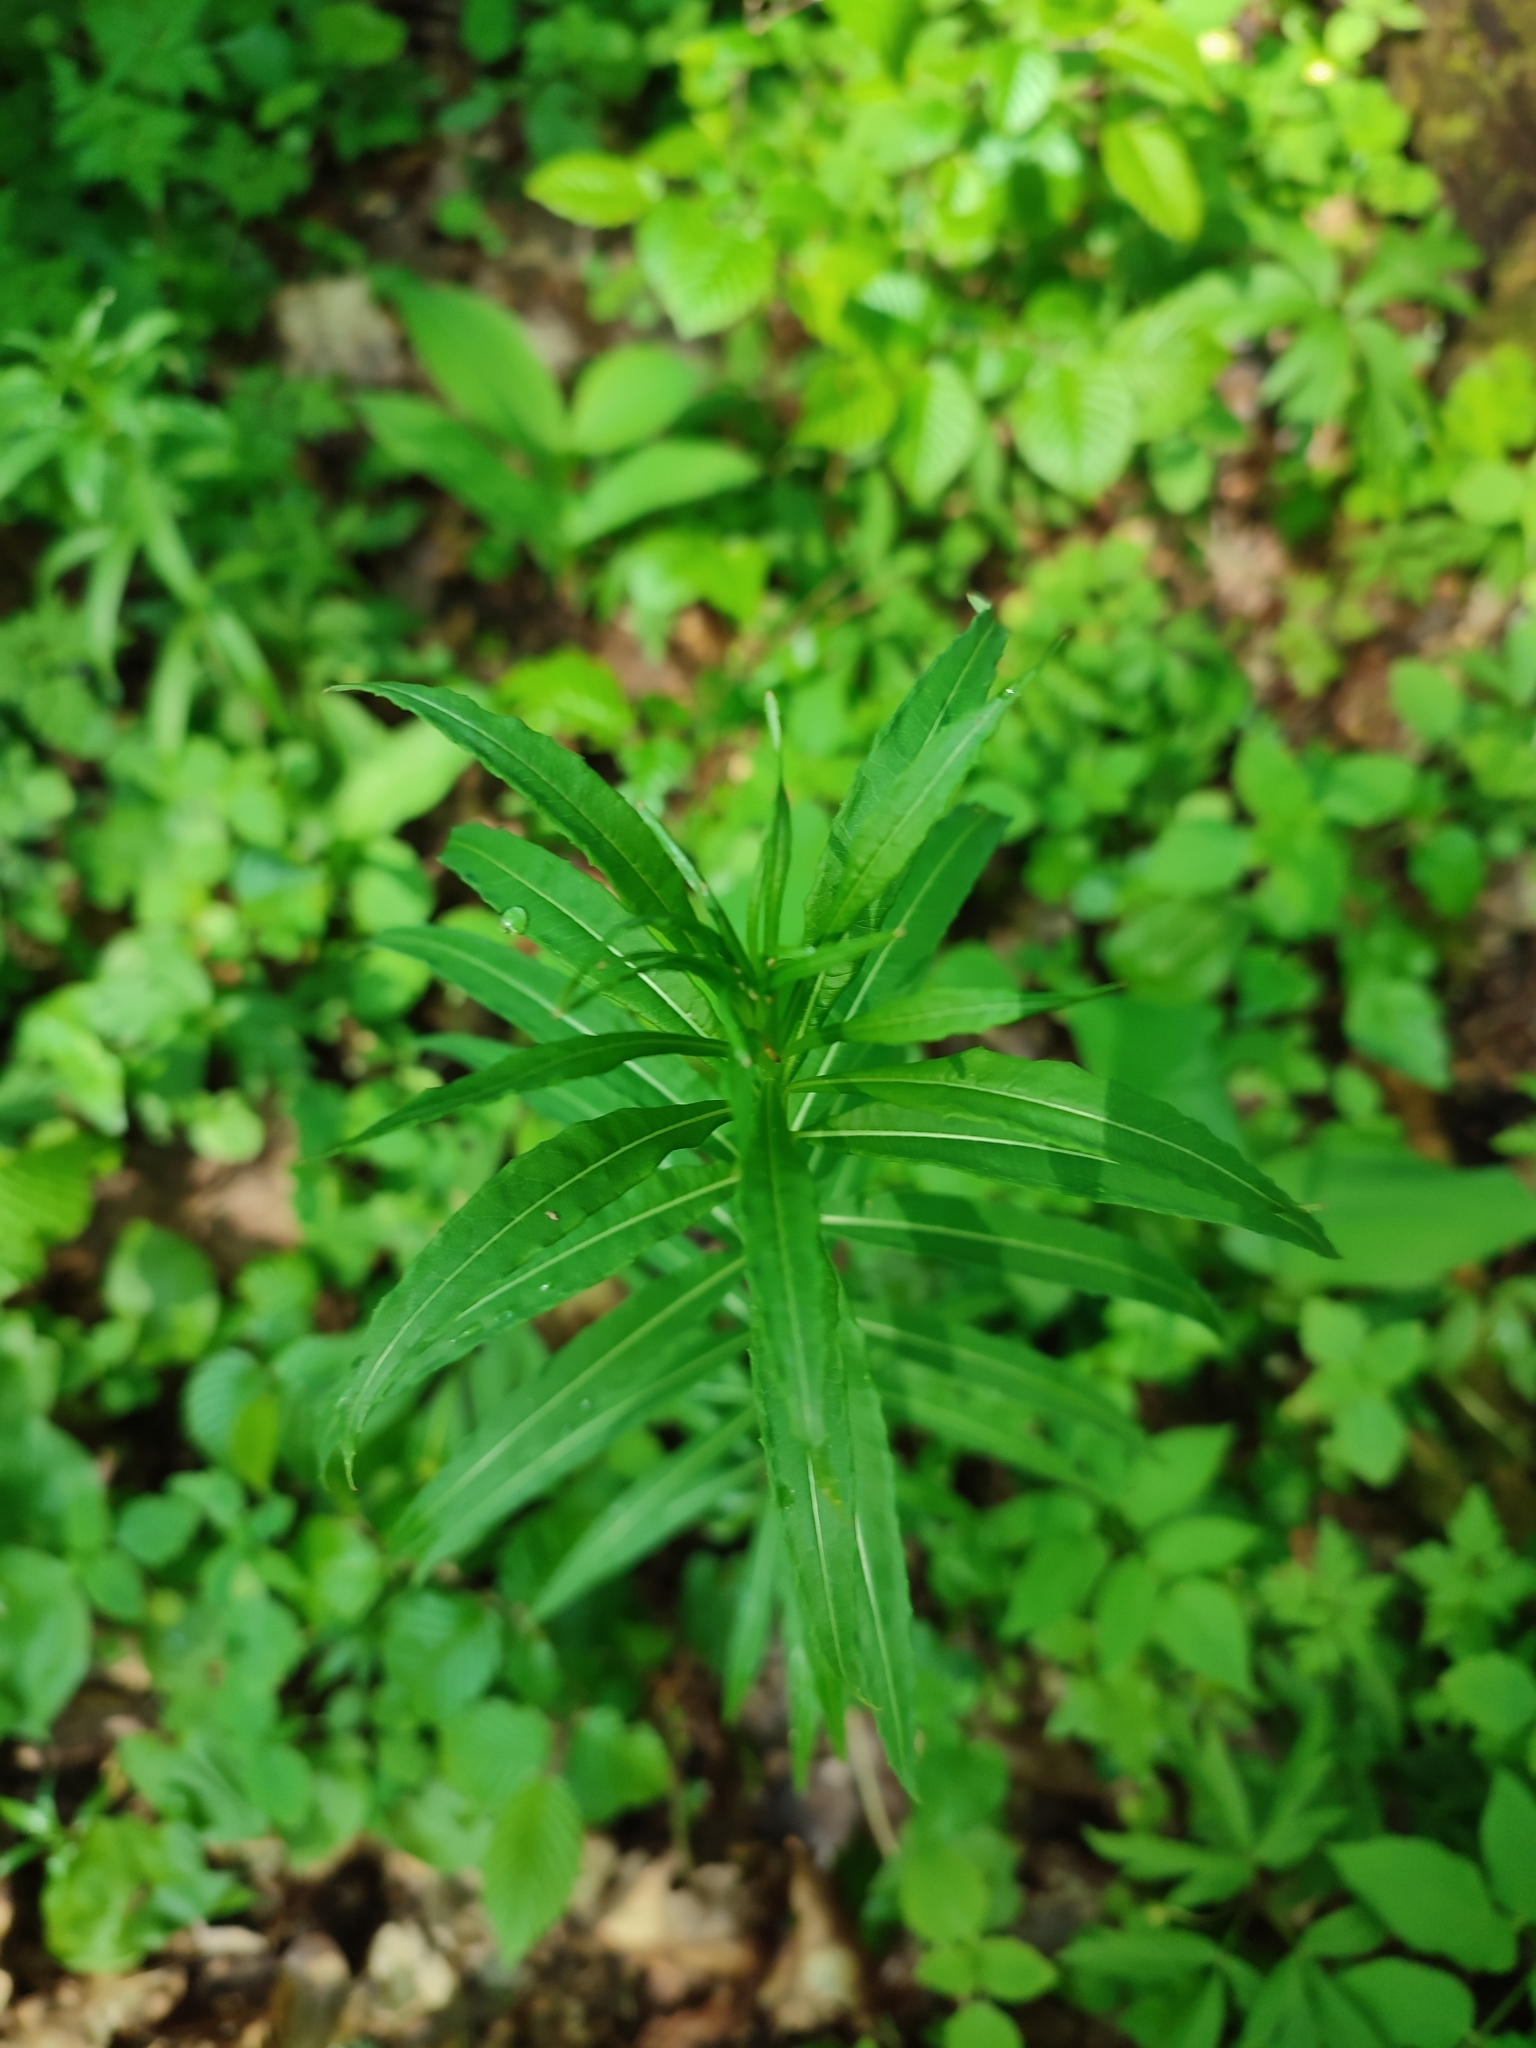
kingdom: Plantae
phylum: Tracheophyta
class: Magnoliopsida
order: Myrtales
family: Onagraceae
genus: Chamaenerion
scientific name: Chamaenerion angustifolium
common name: Fireweed
